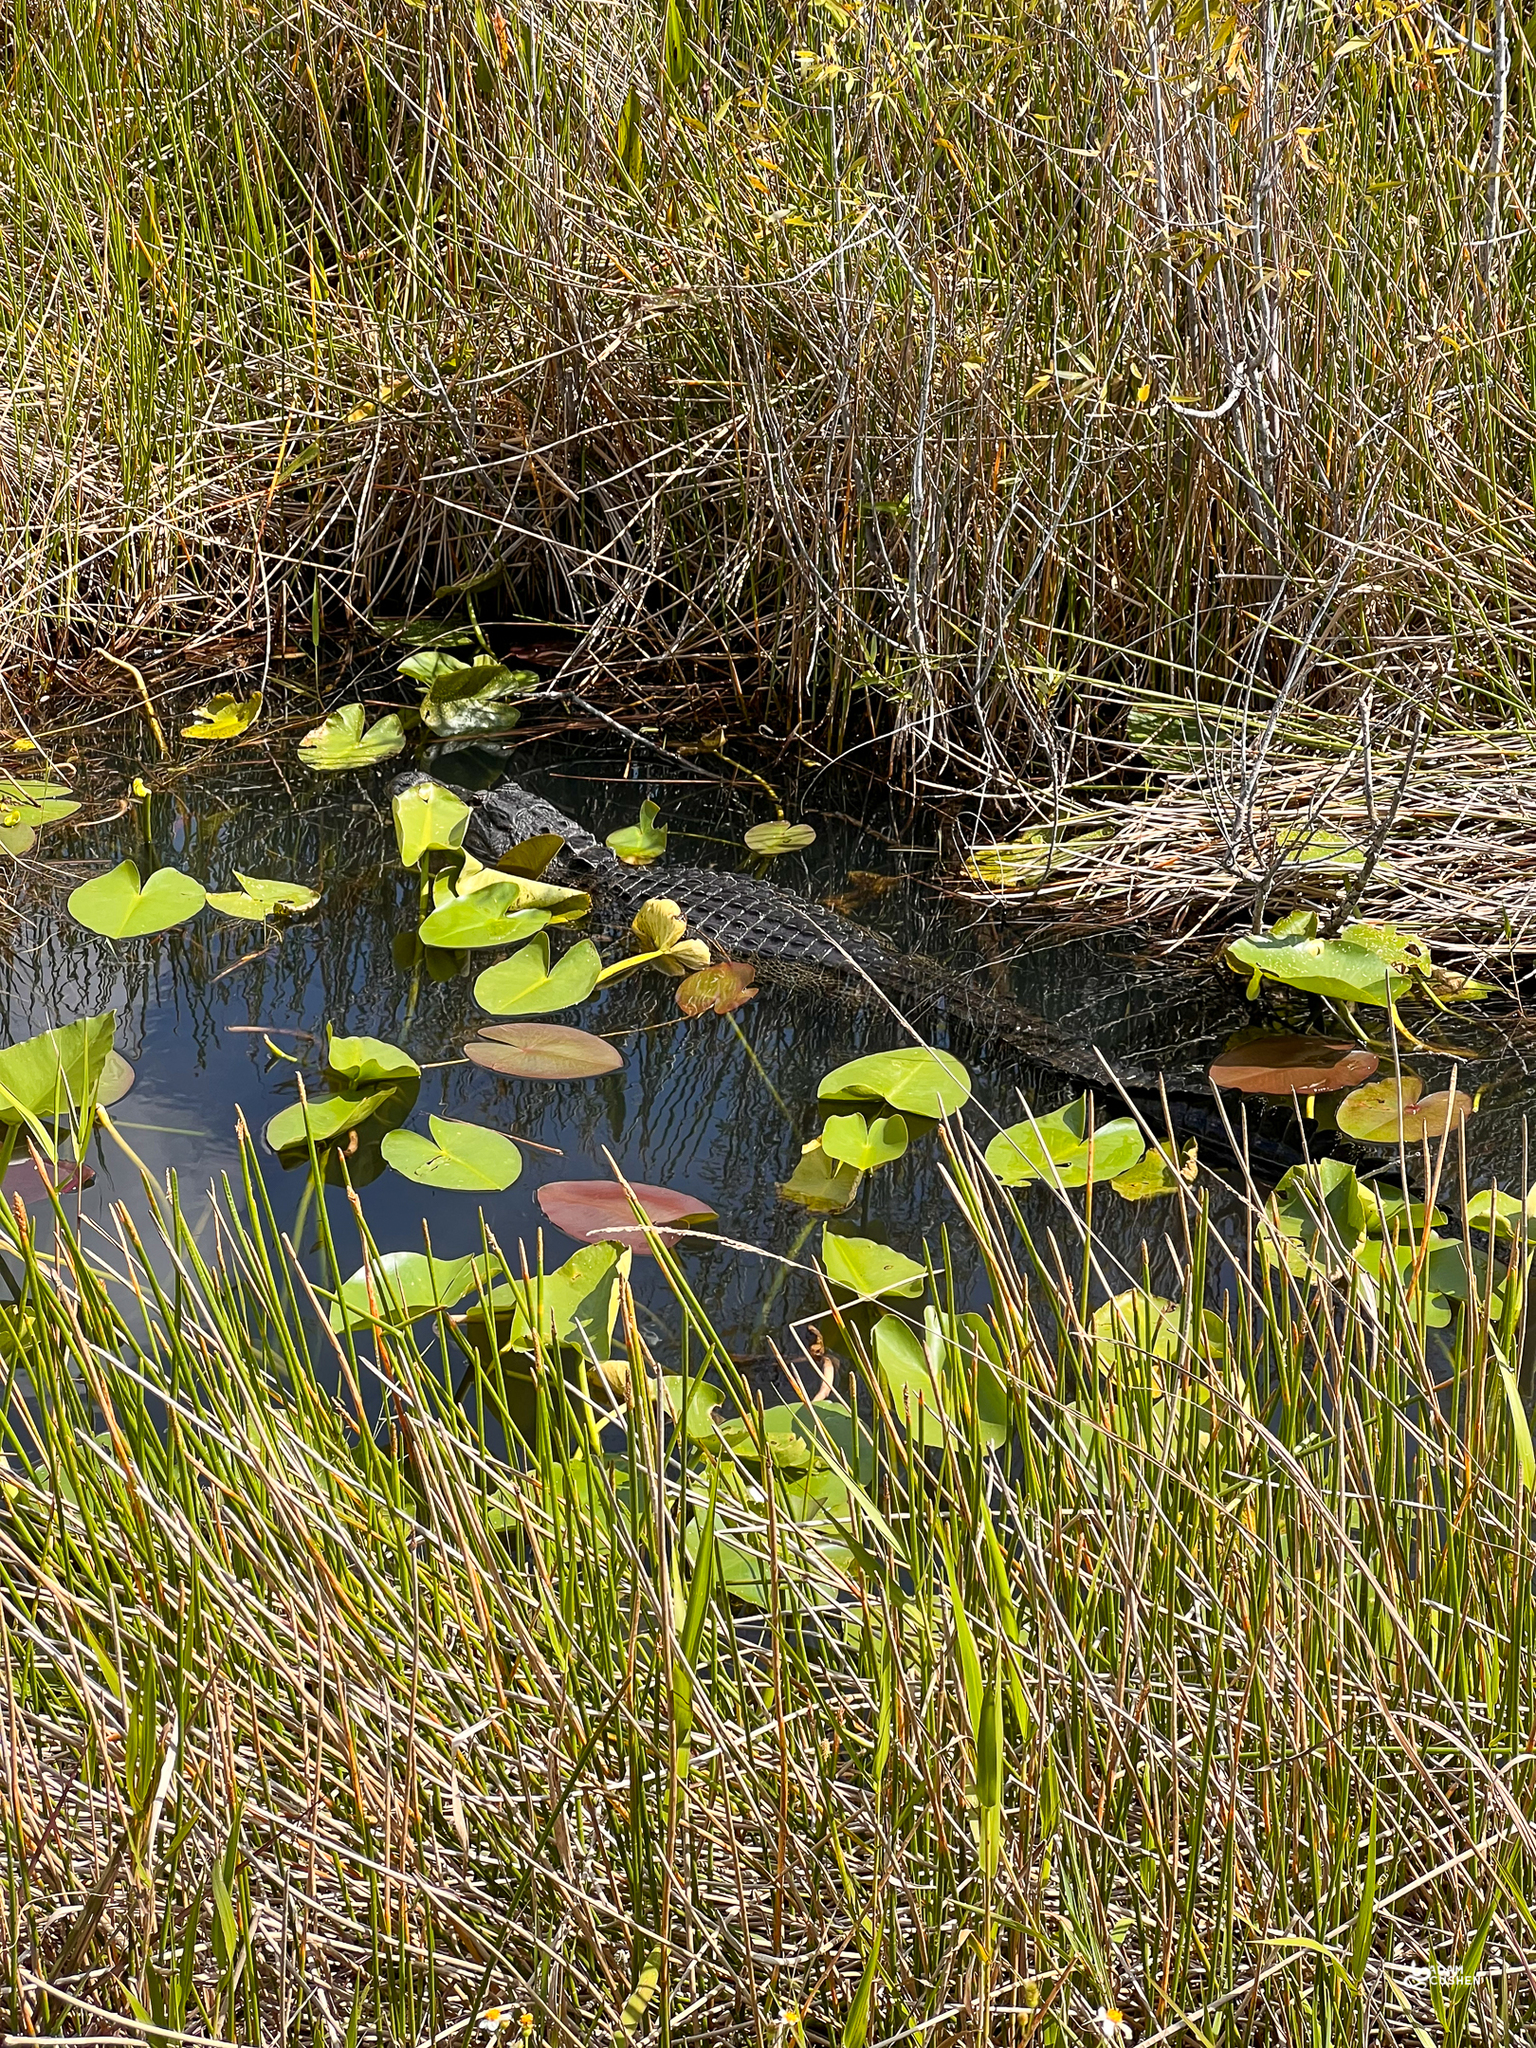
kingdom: Animalia
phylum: Chordata
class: Crocodylia
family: Alligatoridae
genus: Alligator
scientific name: Alligator mississippiensis
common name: American alligator
